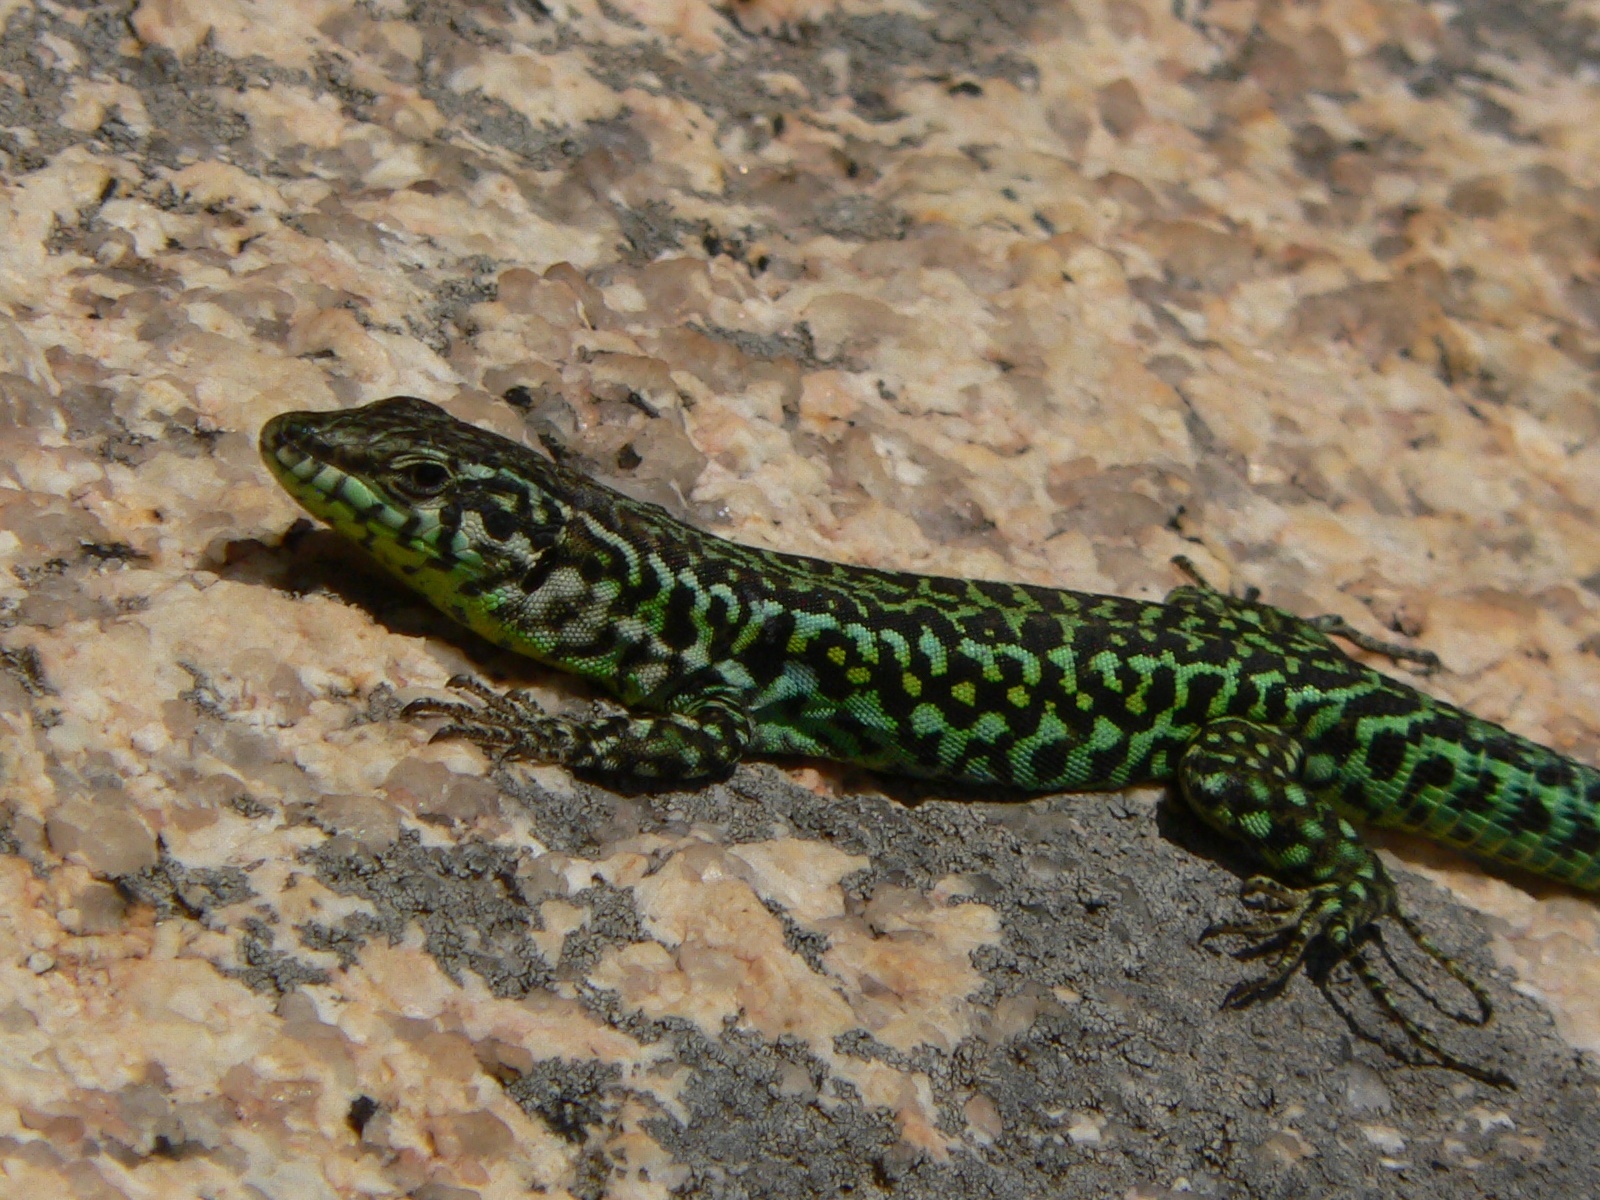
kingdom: Animalia
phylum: Chordata
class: Squamata
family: Lacertidae
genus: Podarcis
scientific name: Podarcis tiliguerta
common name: Tyrrhenian wall lizard
